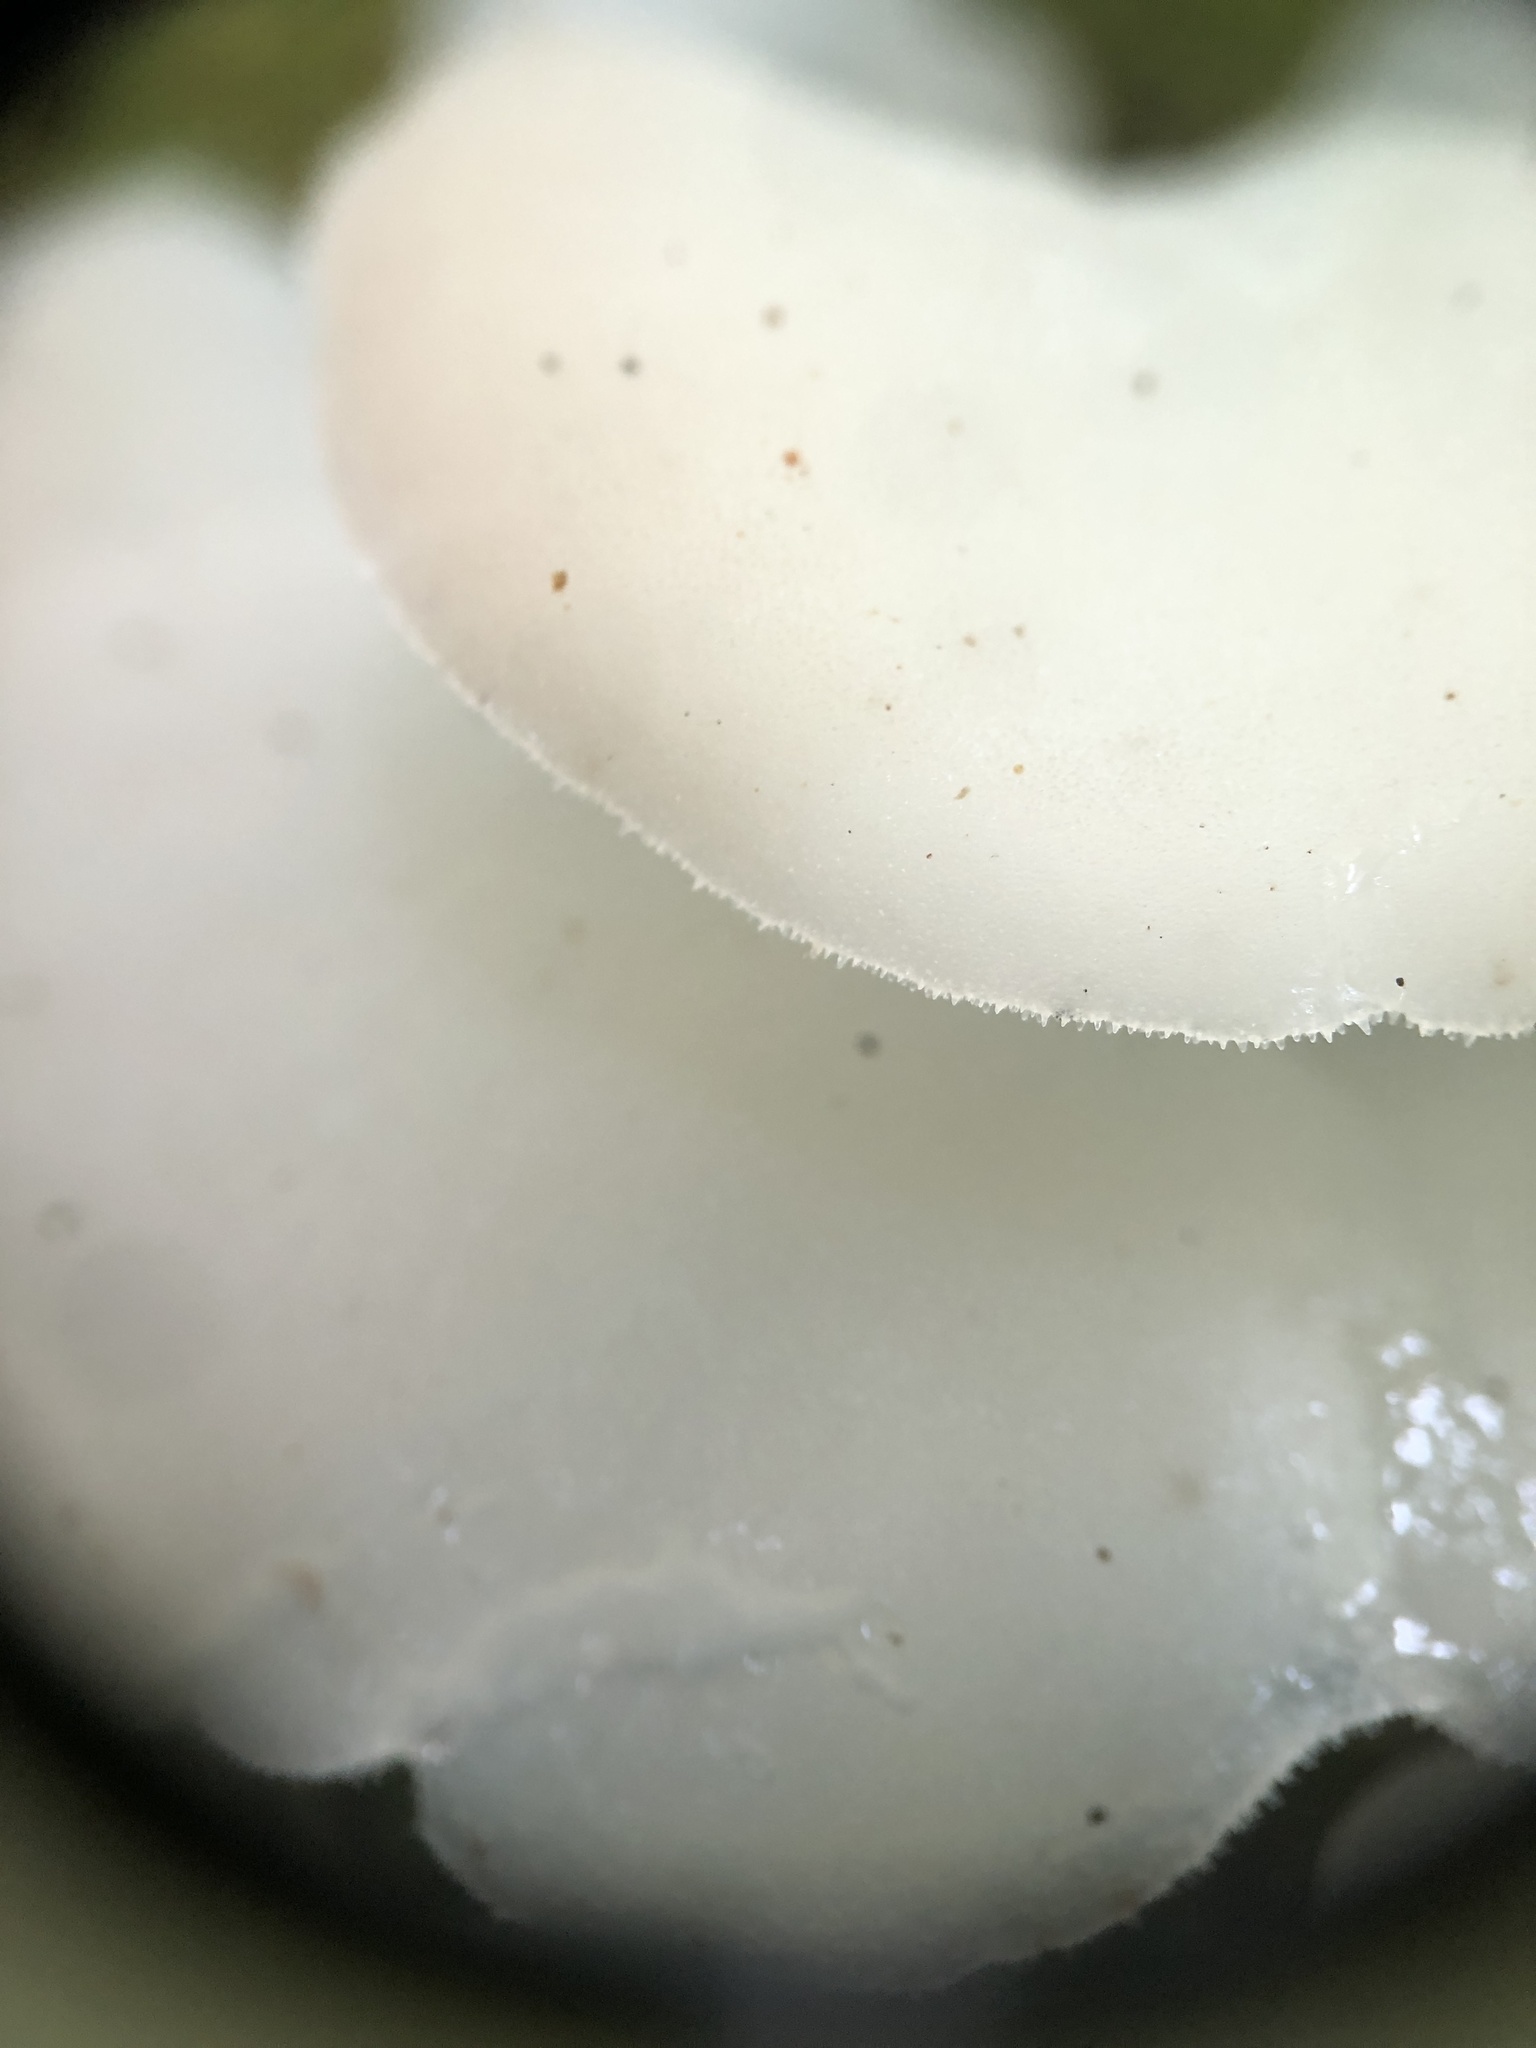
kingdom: Fungi
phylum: Basidiomycota
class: Agaricomycetes
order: Auriculariales
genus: Pseudohydnum
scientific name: Pseudohydnum gelatinosum
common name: Jelly tongue
